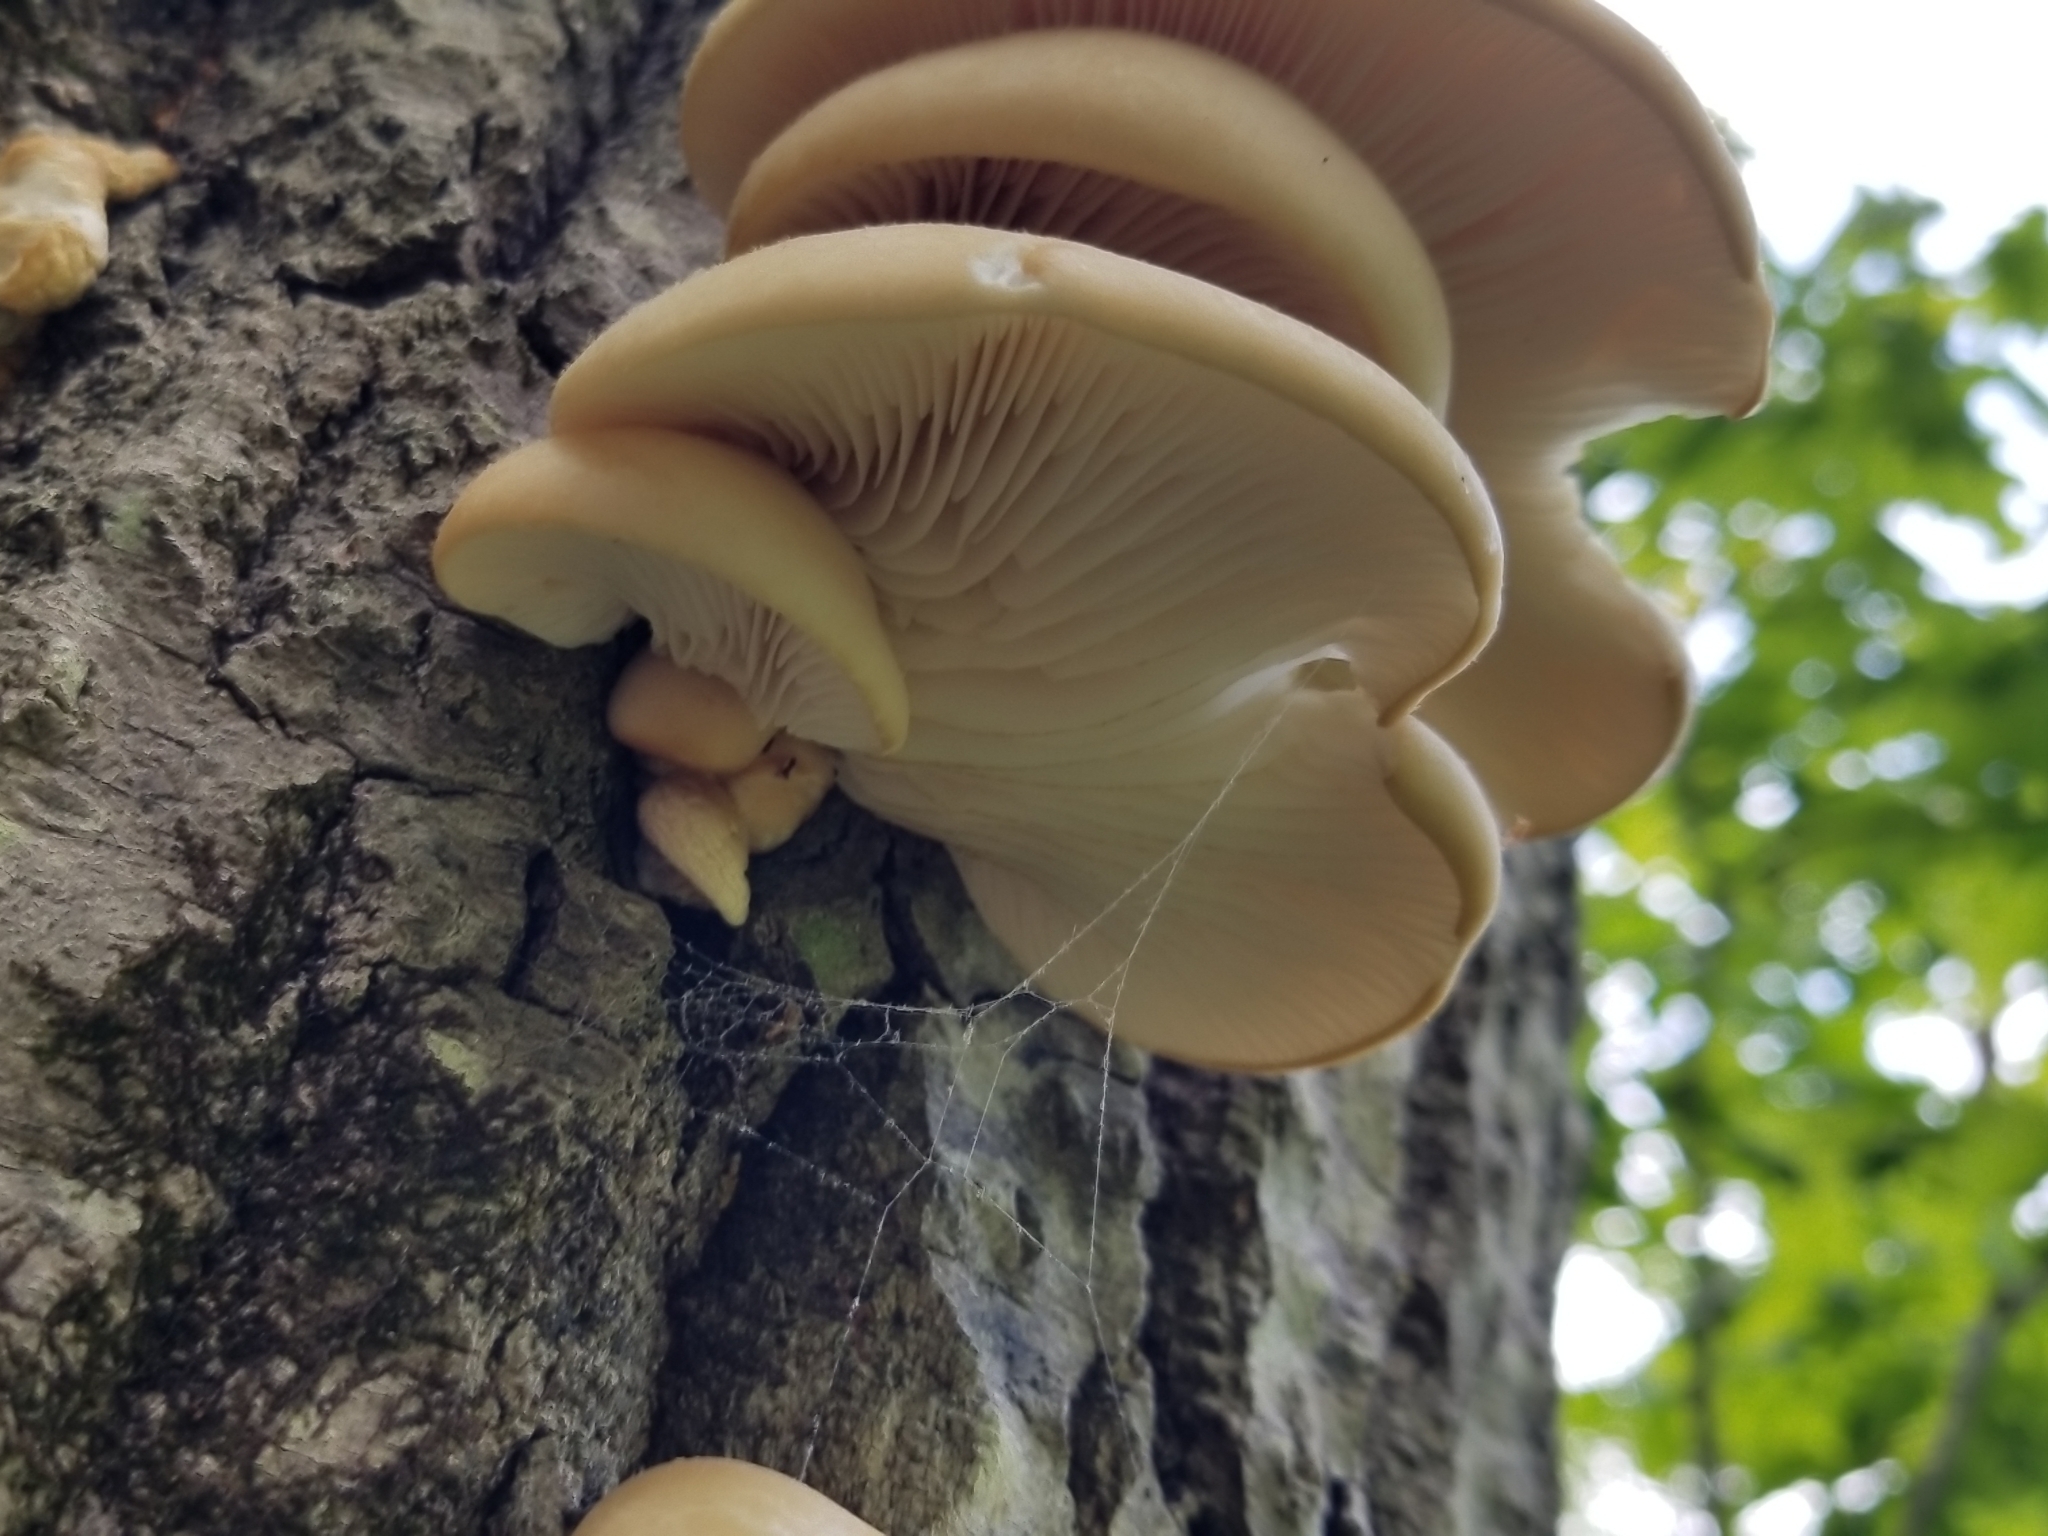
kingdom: Fungi
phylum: Basidiomycota
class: Agaricomycetes
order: Agaricales
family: Pleurotaceae
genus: Pleurotus
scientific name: Pleurotus populinus
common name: Aspen oyster mushroom
